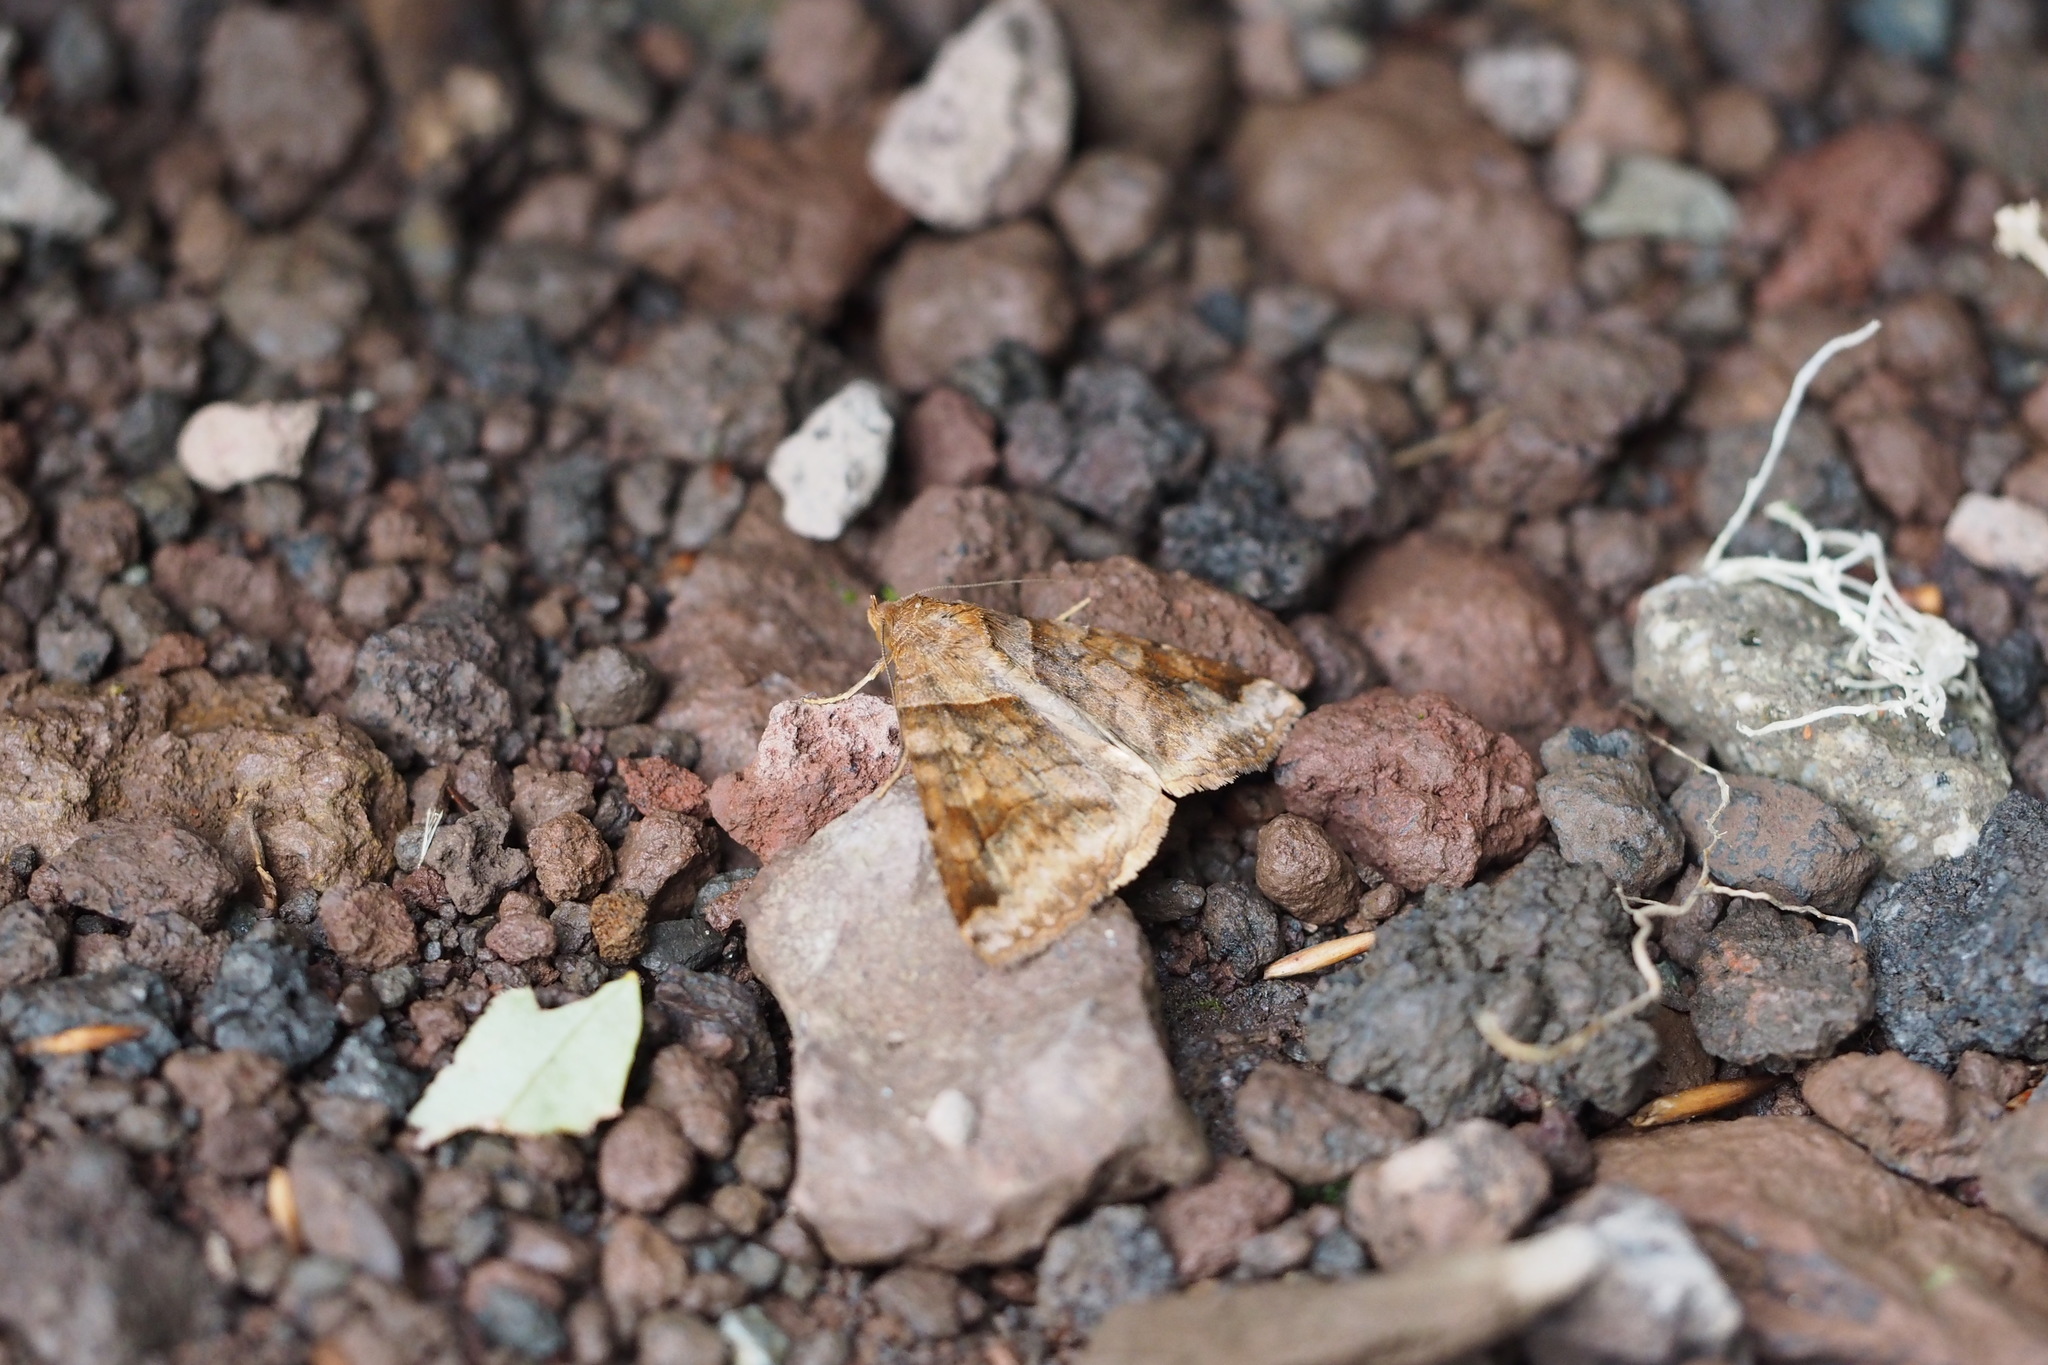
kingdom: Animalia
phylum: Arthropoda
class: Insecta
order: Lepidoptera
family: Erebidae
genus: Mocis
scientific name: Mocis annetta
